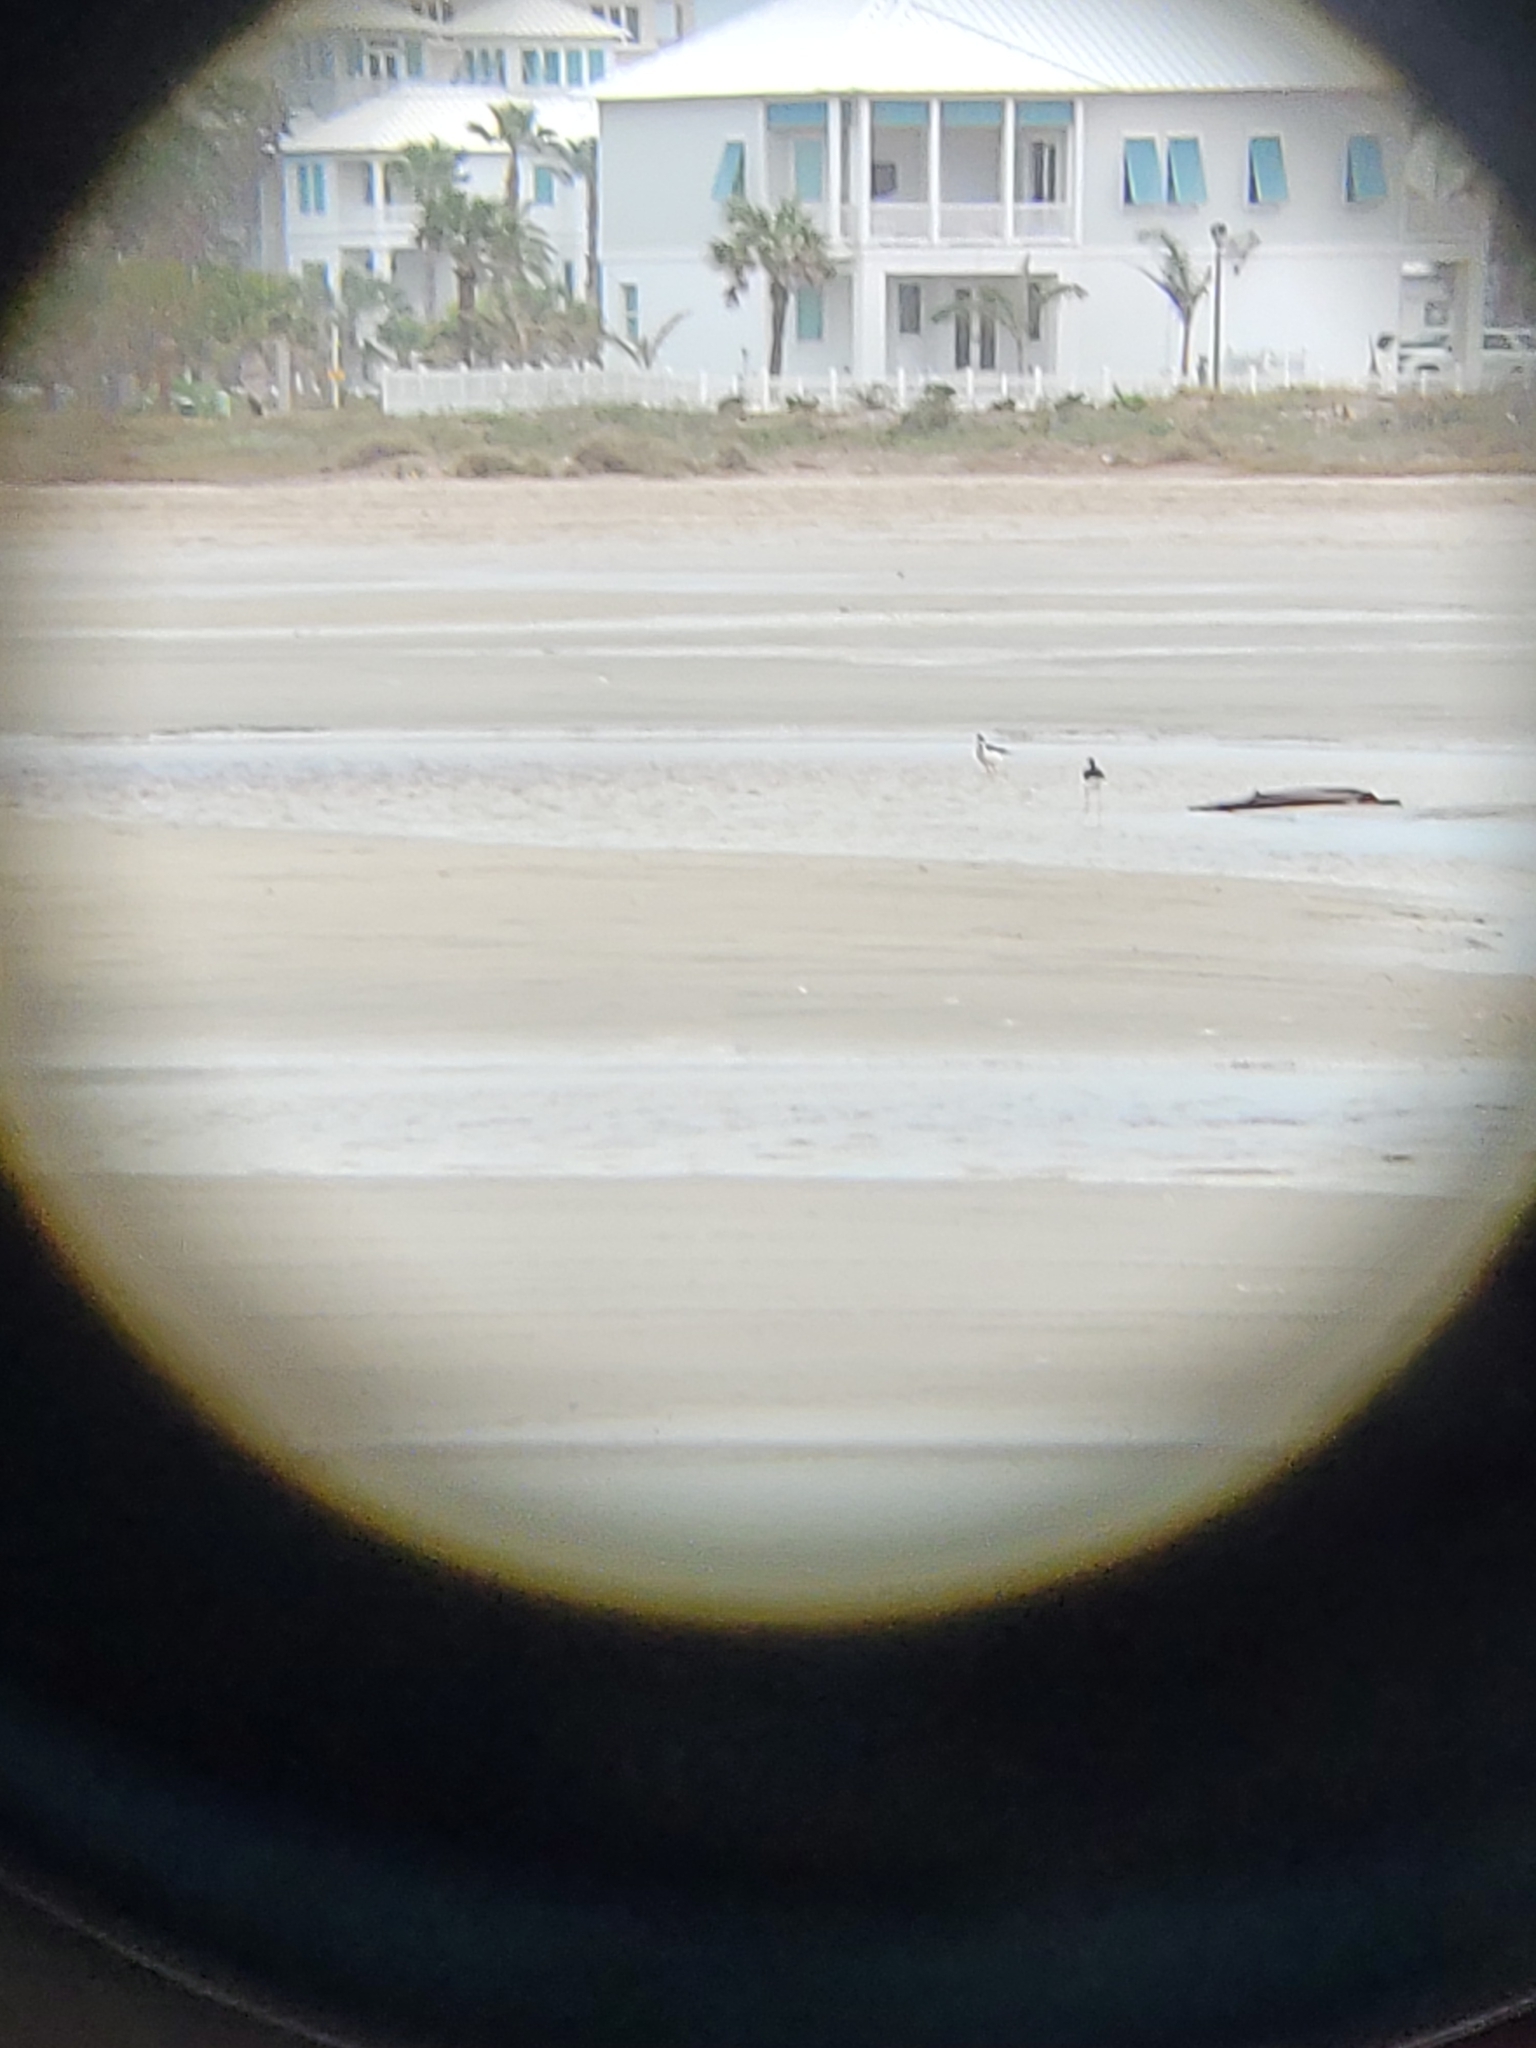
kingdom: Animalia
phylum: Chordata
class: Aves
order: Charadriiformes
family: Recurvirostridae
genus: Himantopus
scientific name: Himantopus mexicanus
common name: Black-necked stilt
